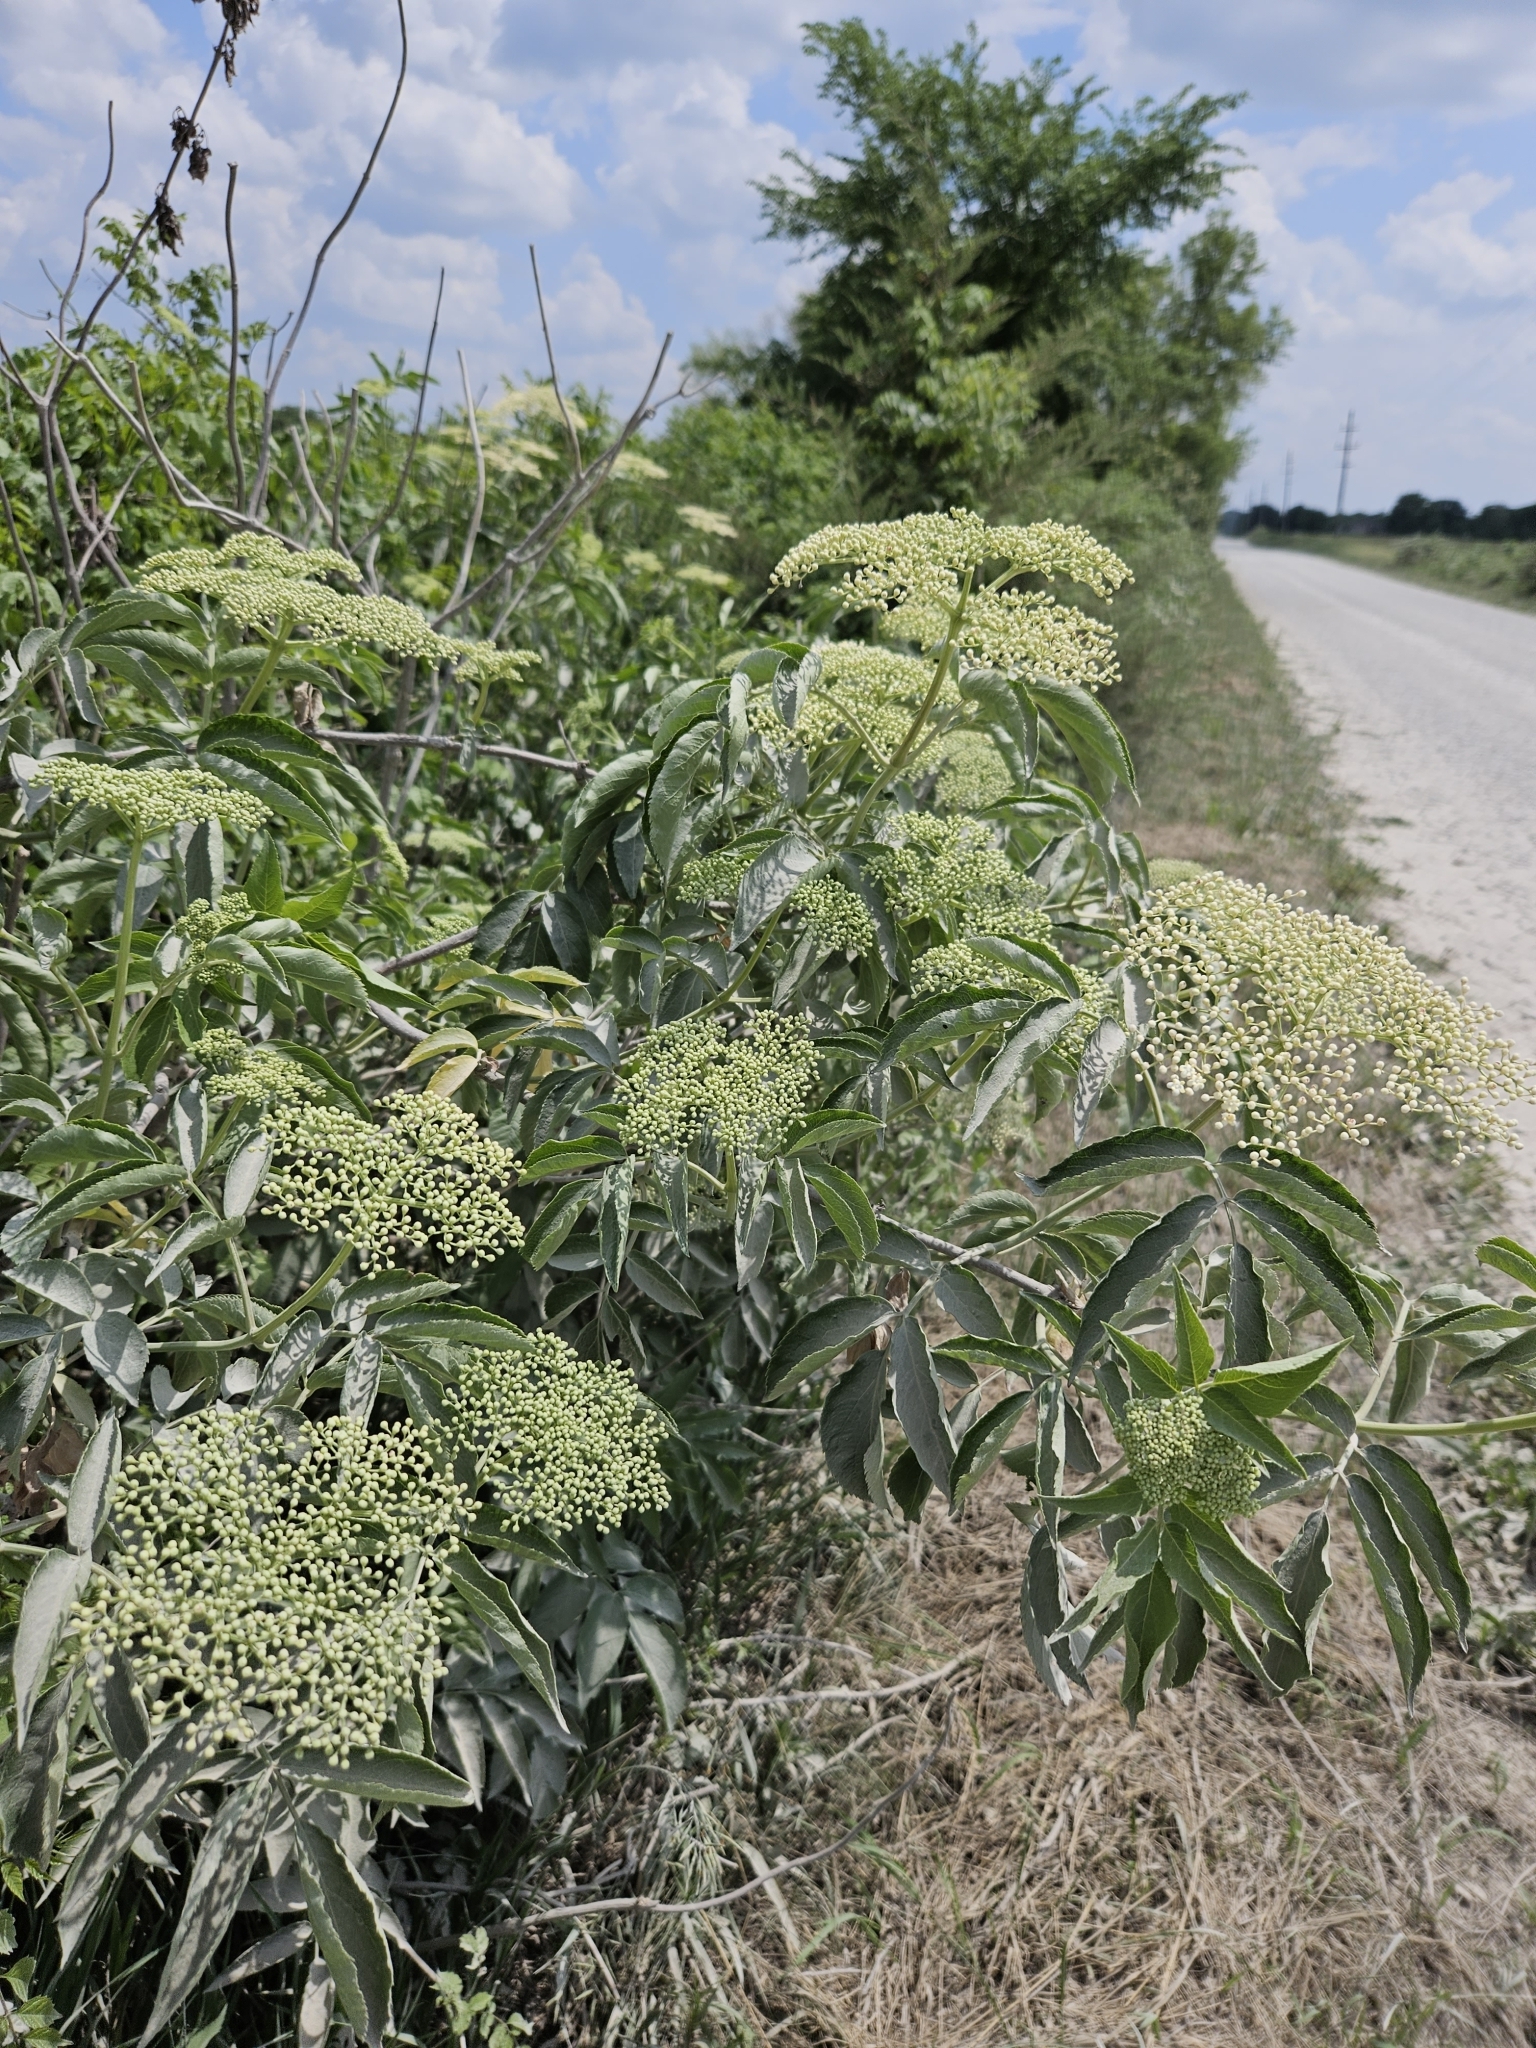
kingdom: Plantae
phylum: Tracheophyta
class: Magnoliopsida
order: Dipsacales
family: Viburnaceae
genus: Sambucus
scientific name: Sambucus canadensis
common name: American elder
